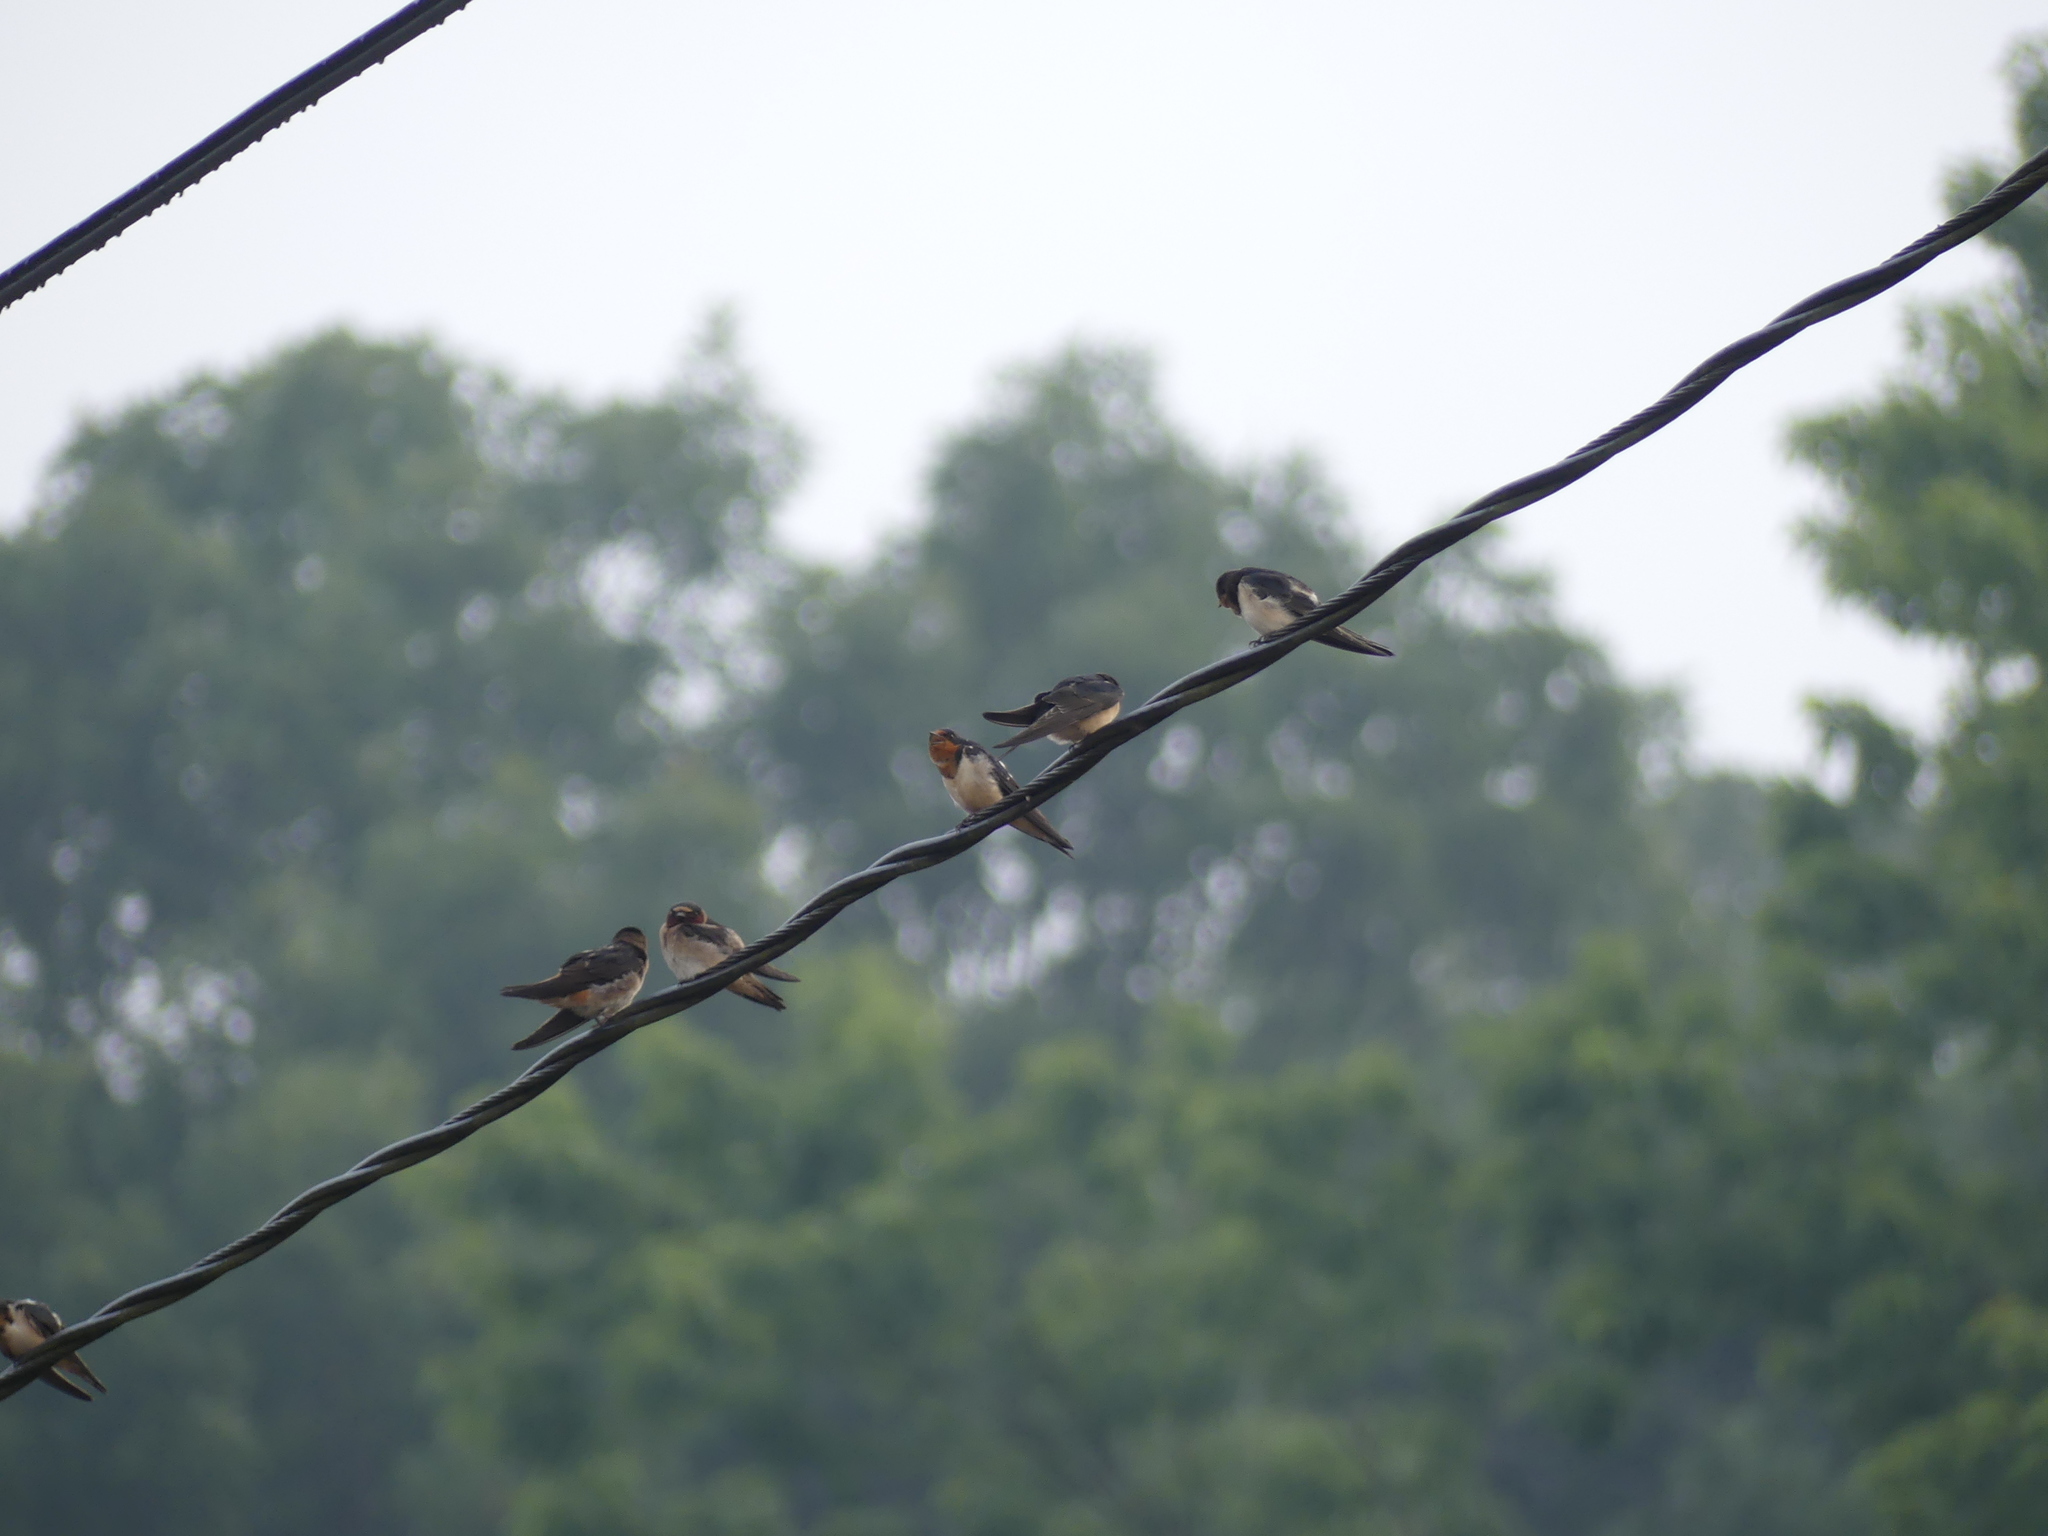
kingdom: Animalia
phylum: Chordata
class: Aves
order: Passeriformes
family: Hirundinidae
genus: Hirundo
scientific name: Hirundo rustica
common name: Barn swallow
